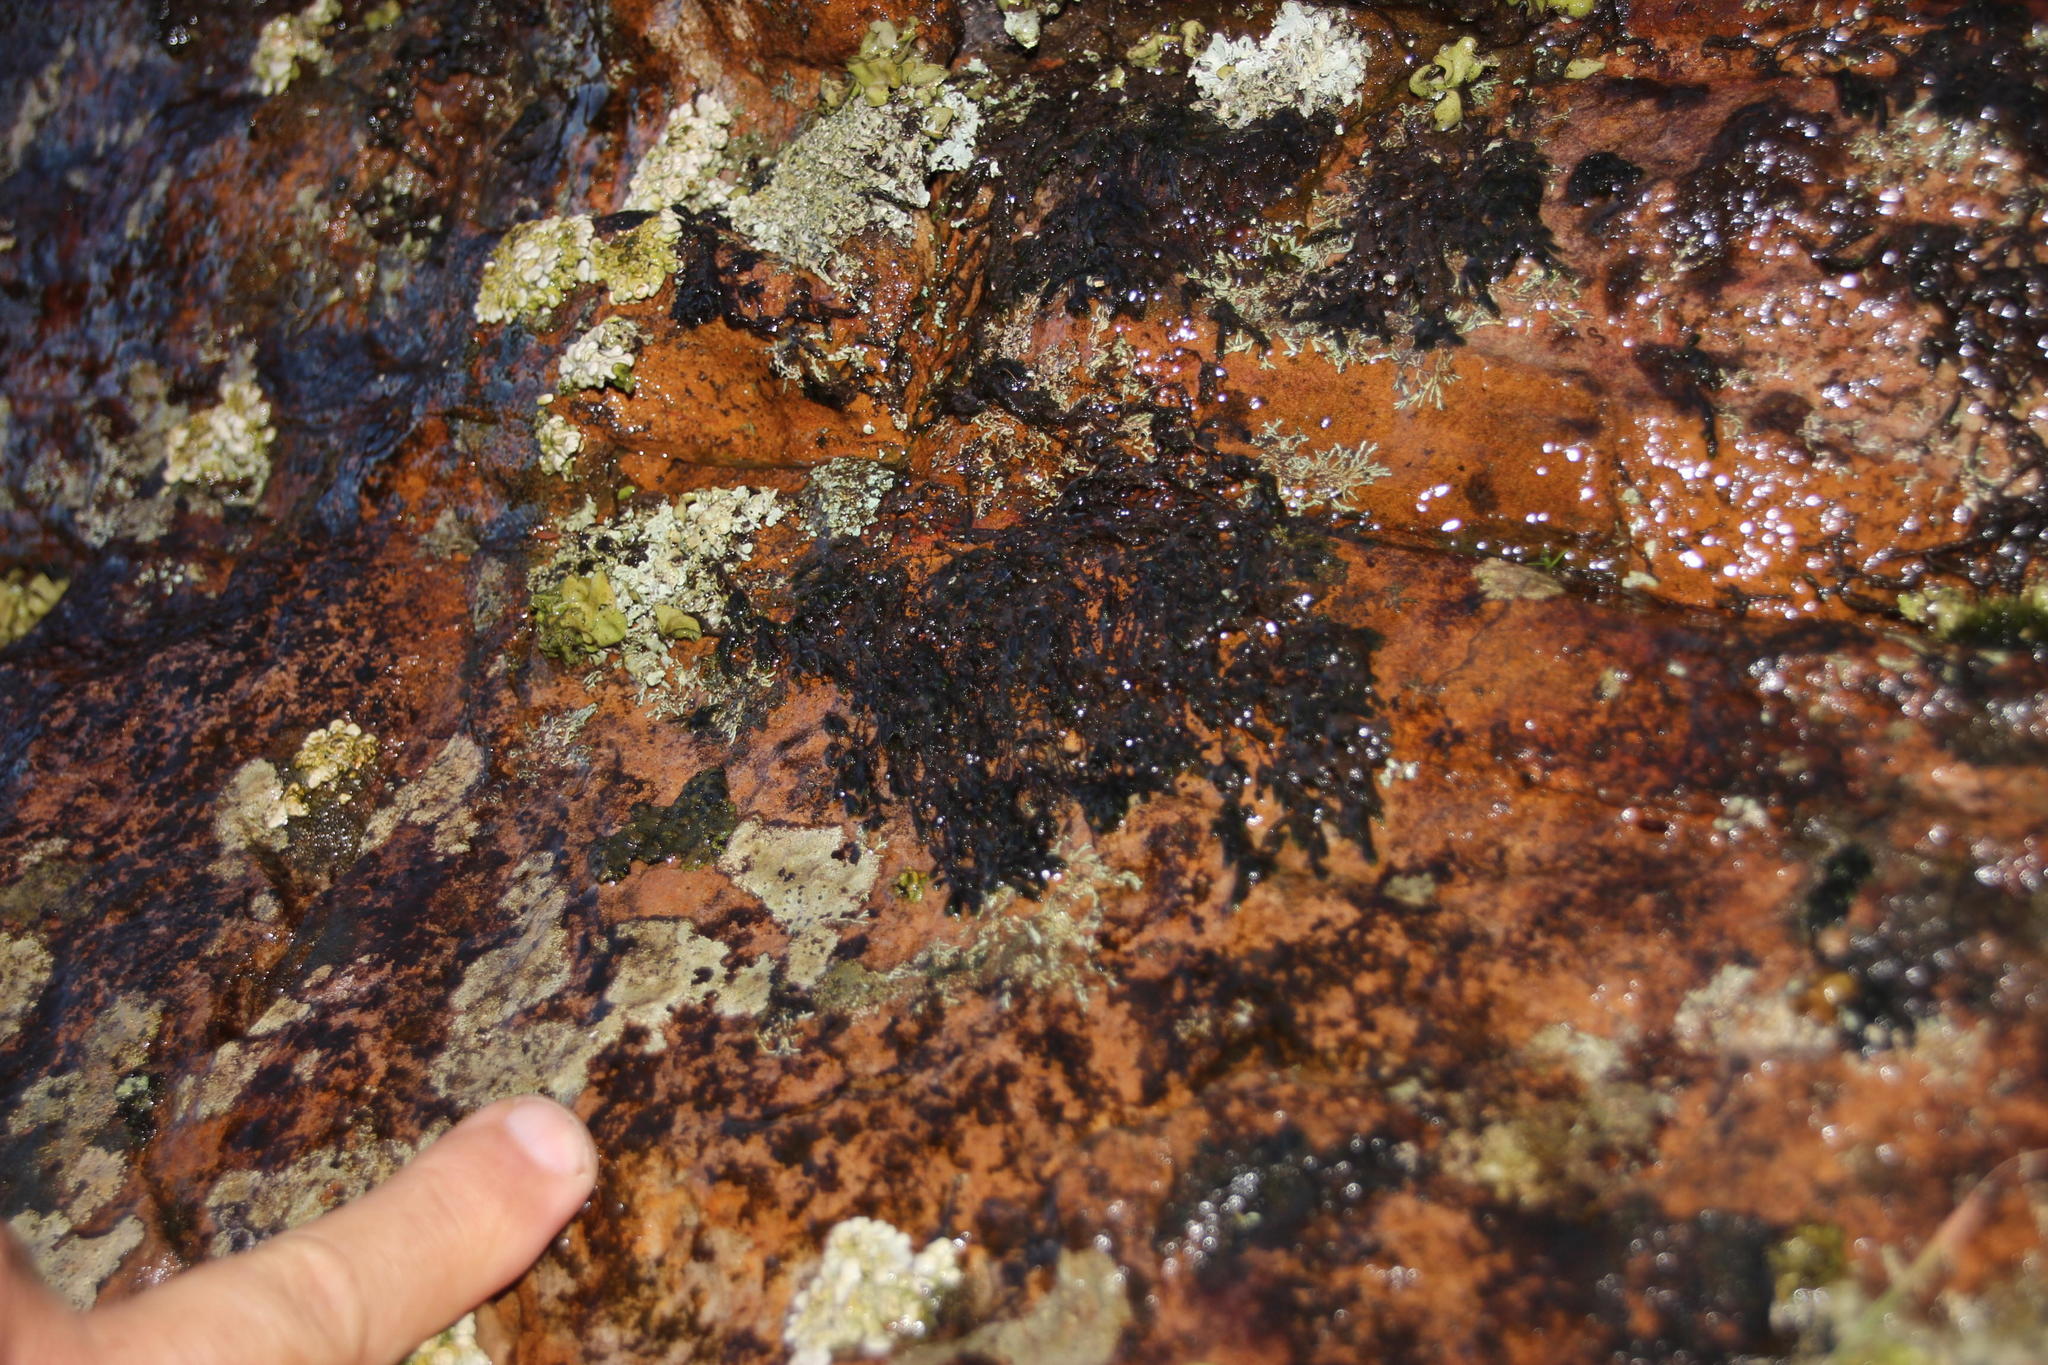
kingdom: Plantae
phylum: Bryophyta
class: Bryopsida
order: Hedwigiales
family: Hedwigiaceae
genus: Rhacocarpus
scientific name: Rhacocarpus rehmannianus
